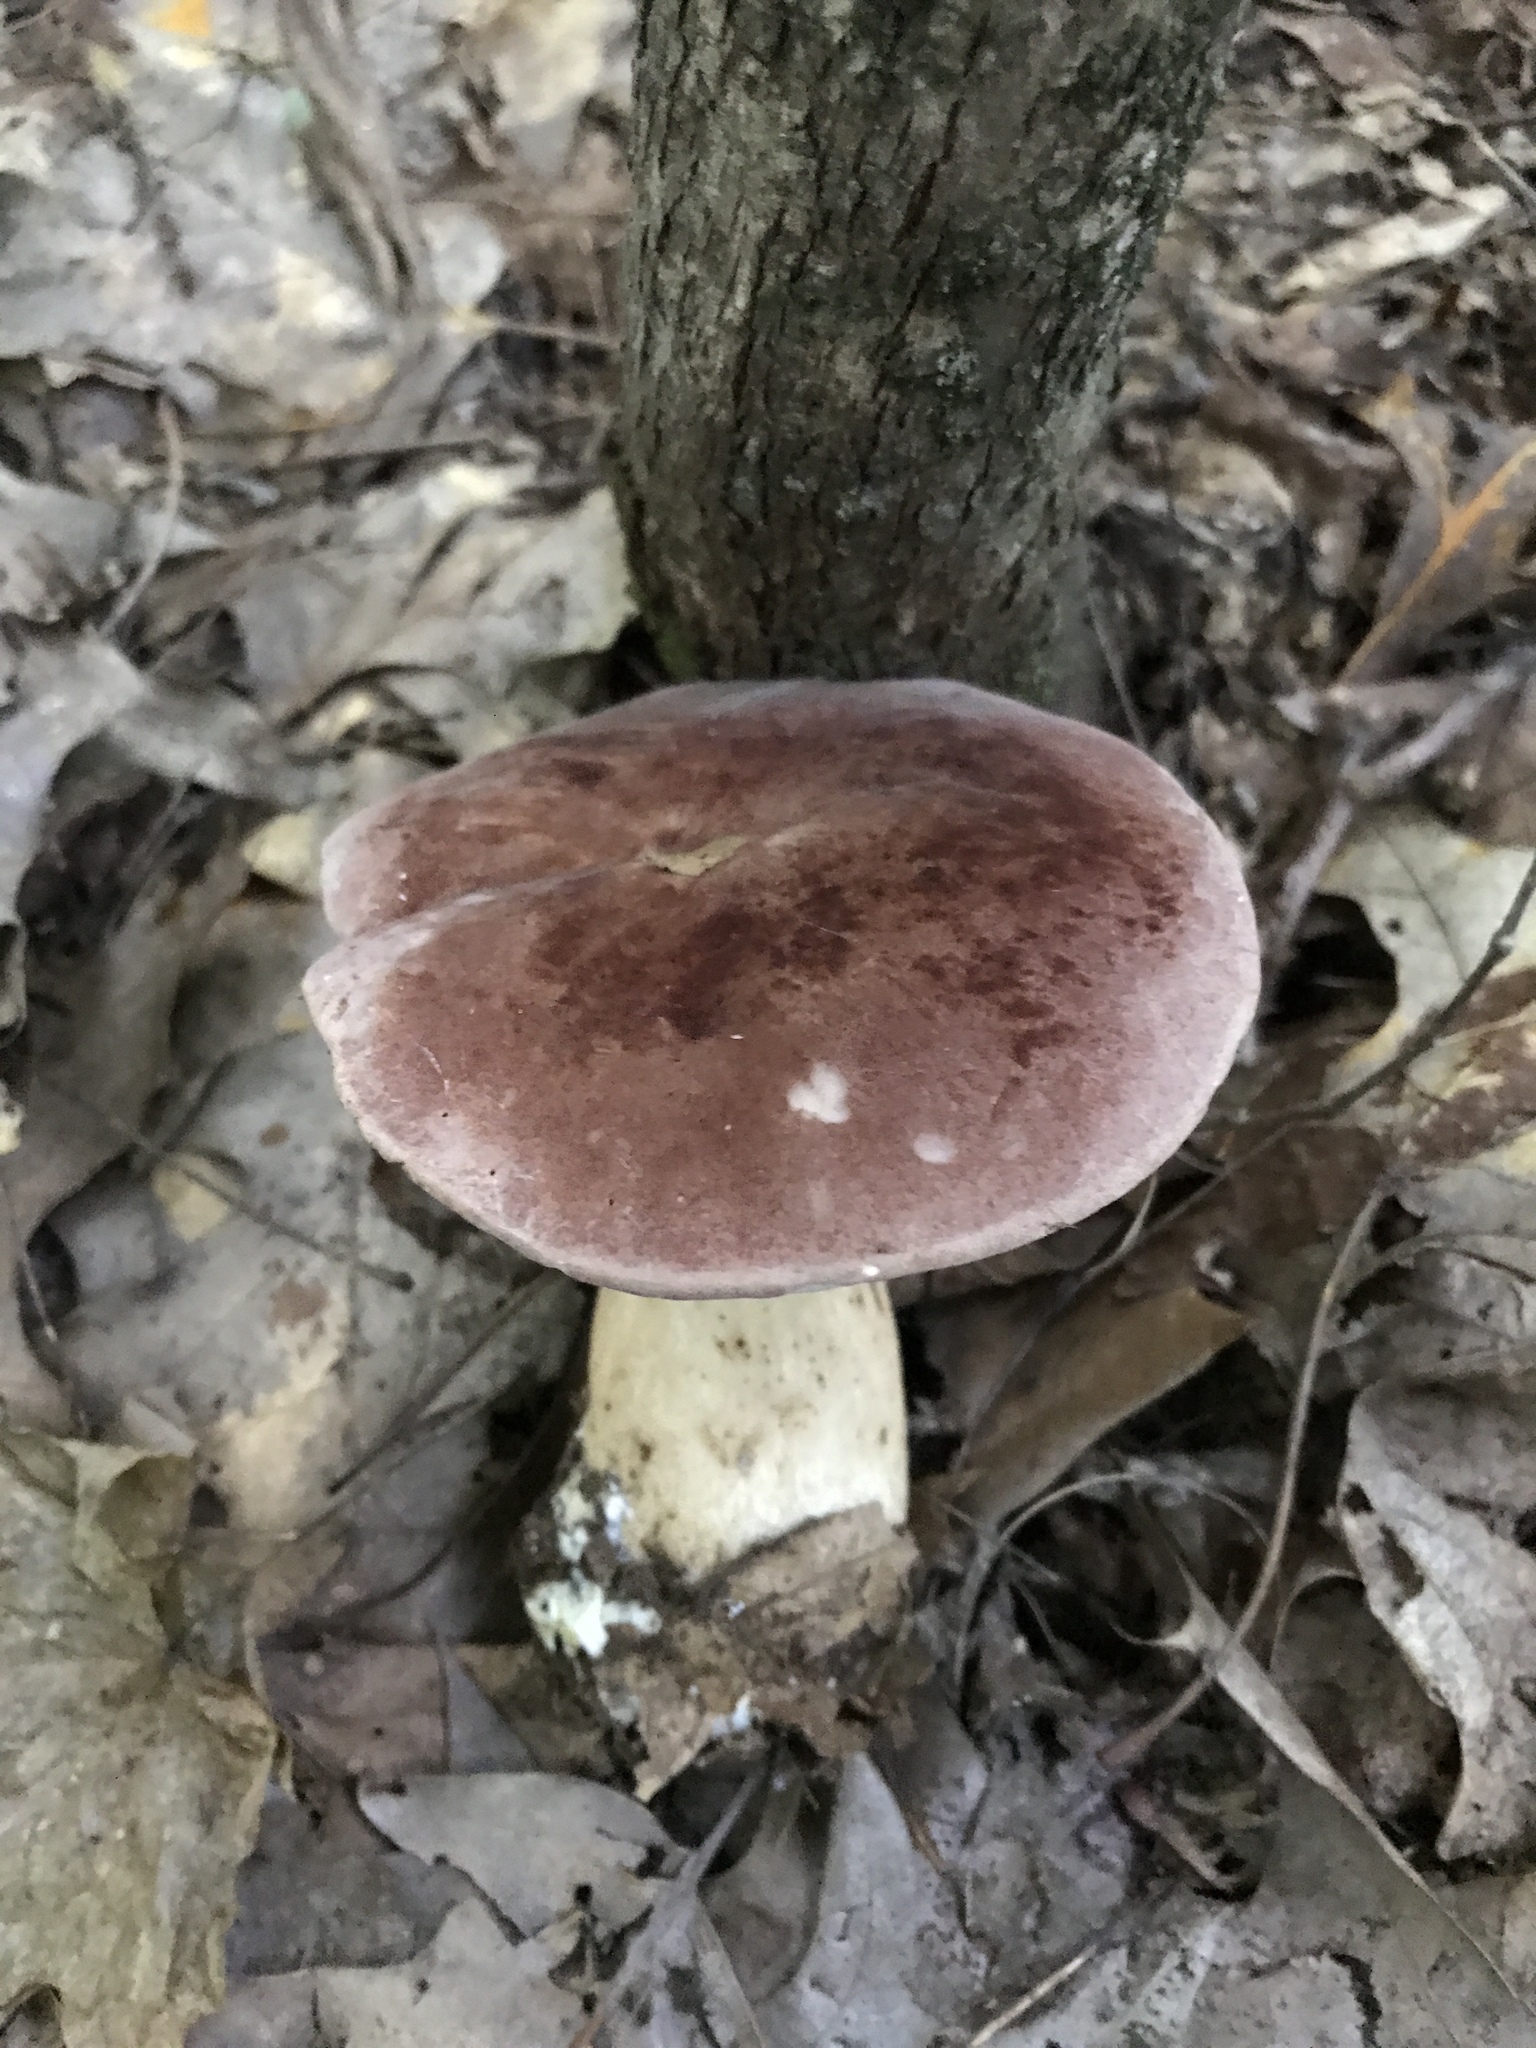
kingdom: Fungi
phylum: Basidiomycota
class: Agaricomycetes
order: Boletales
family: Boletaceae
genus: Tylopilus
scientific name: Tylopilus rubrobrunneus
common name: Reddish brown bitter bolete
